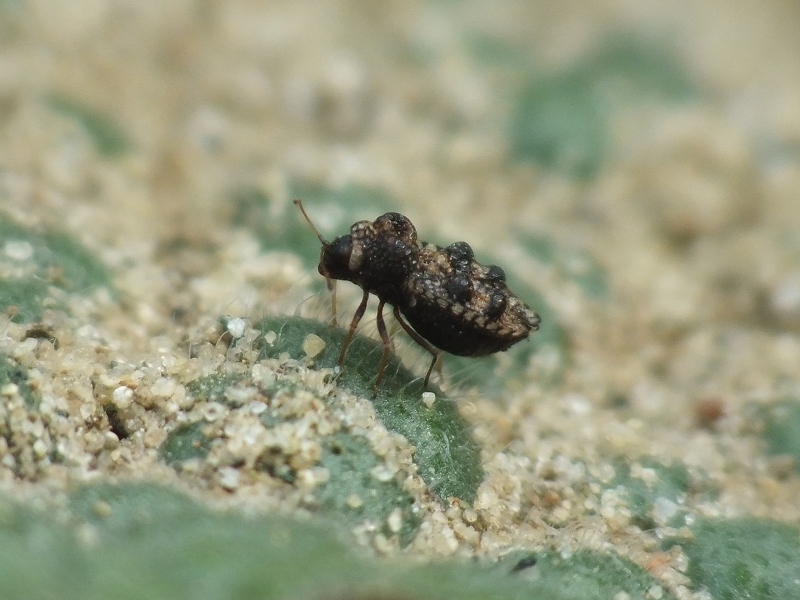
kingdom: Animalia
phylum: Arthropoda
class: Insecta
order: Hemiptera
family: Tingidae
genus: Dictyla
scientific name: Dictyla rotundata
